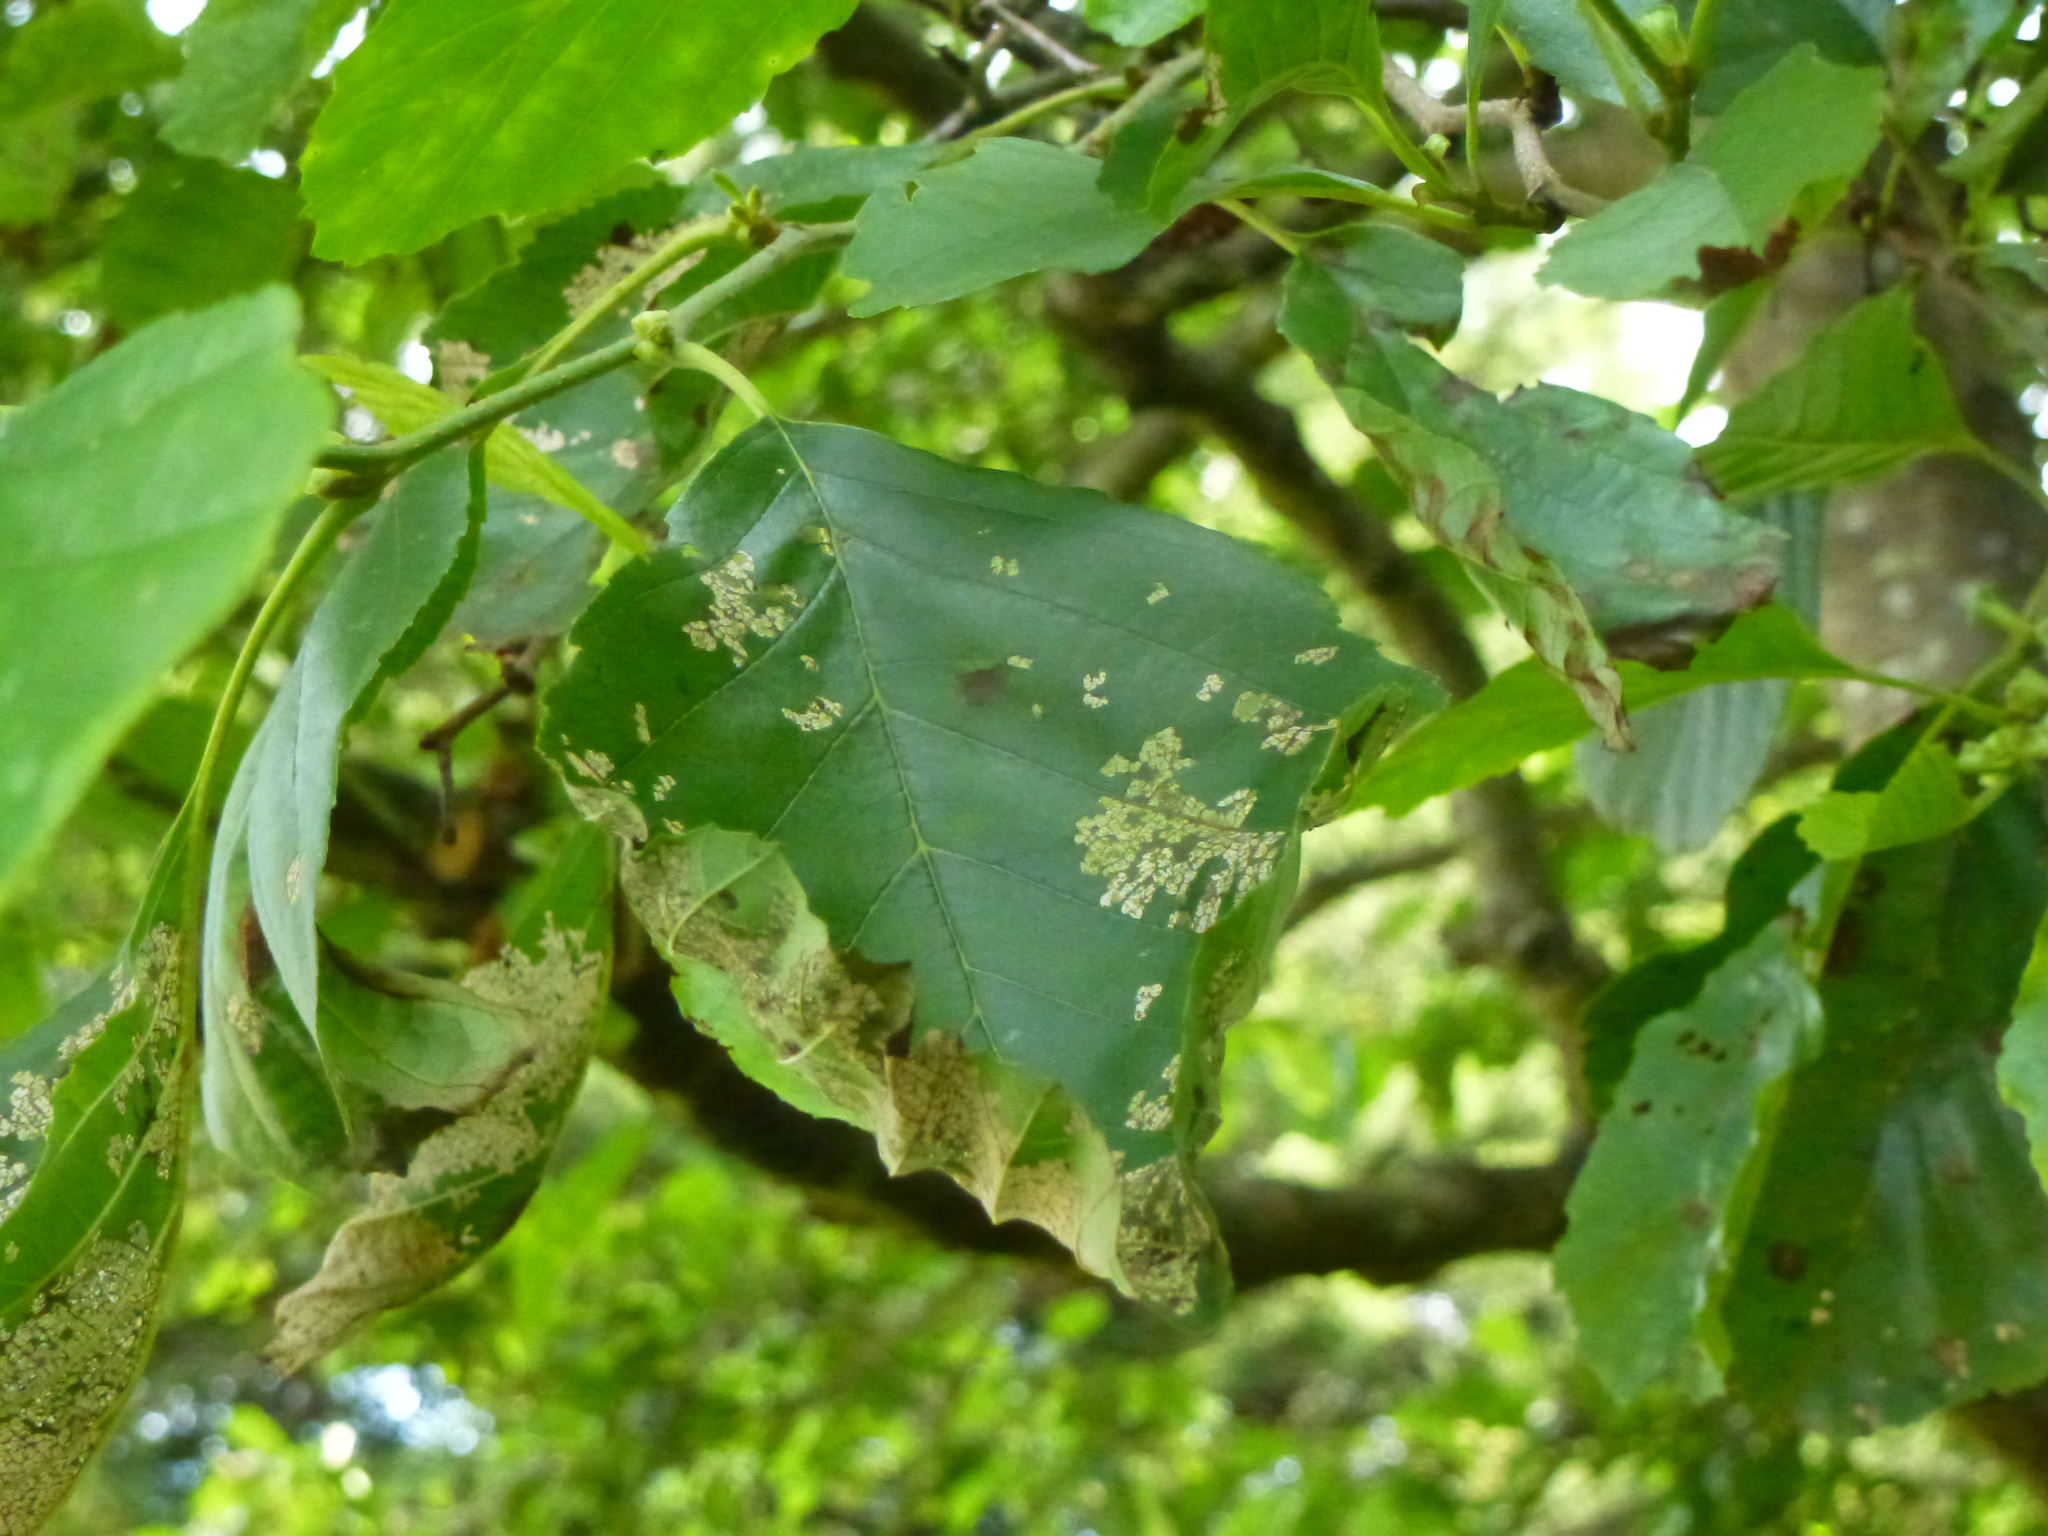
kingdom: Animalia
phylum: Arthropoda
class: Insecta
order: Coleoptera
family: Chrysomelidae
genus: Agelastica
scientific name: Agelastica alni
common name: Alder leaf beetle
